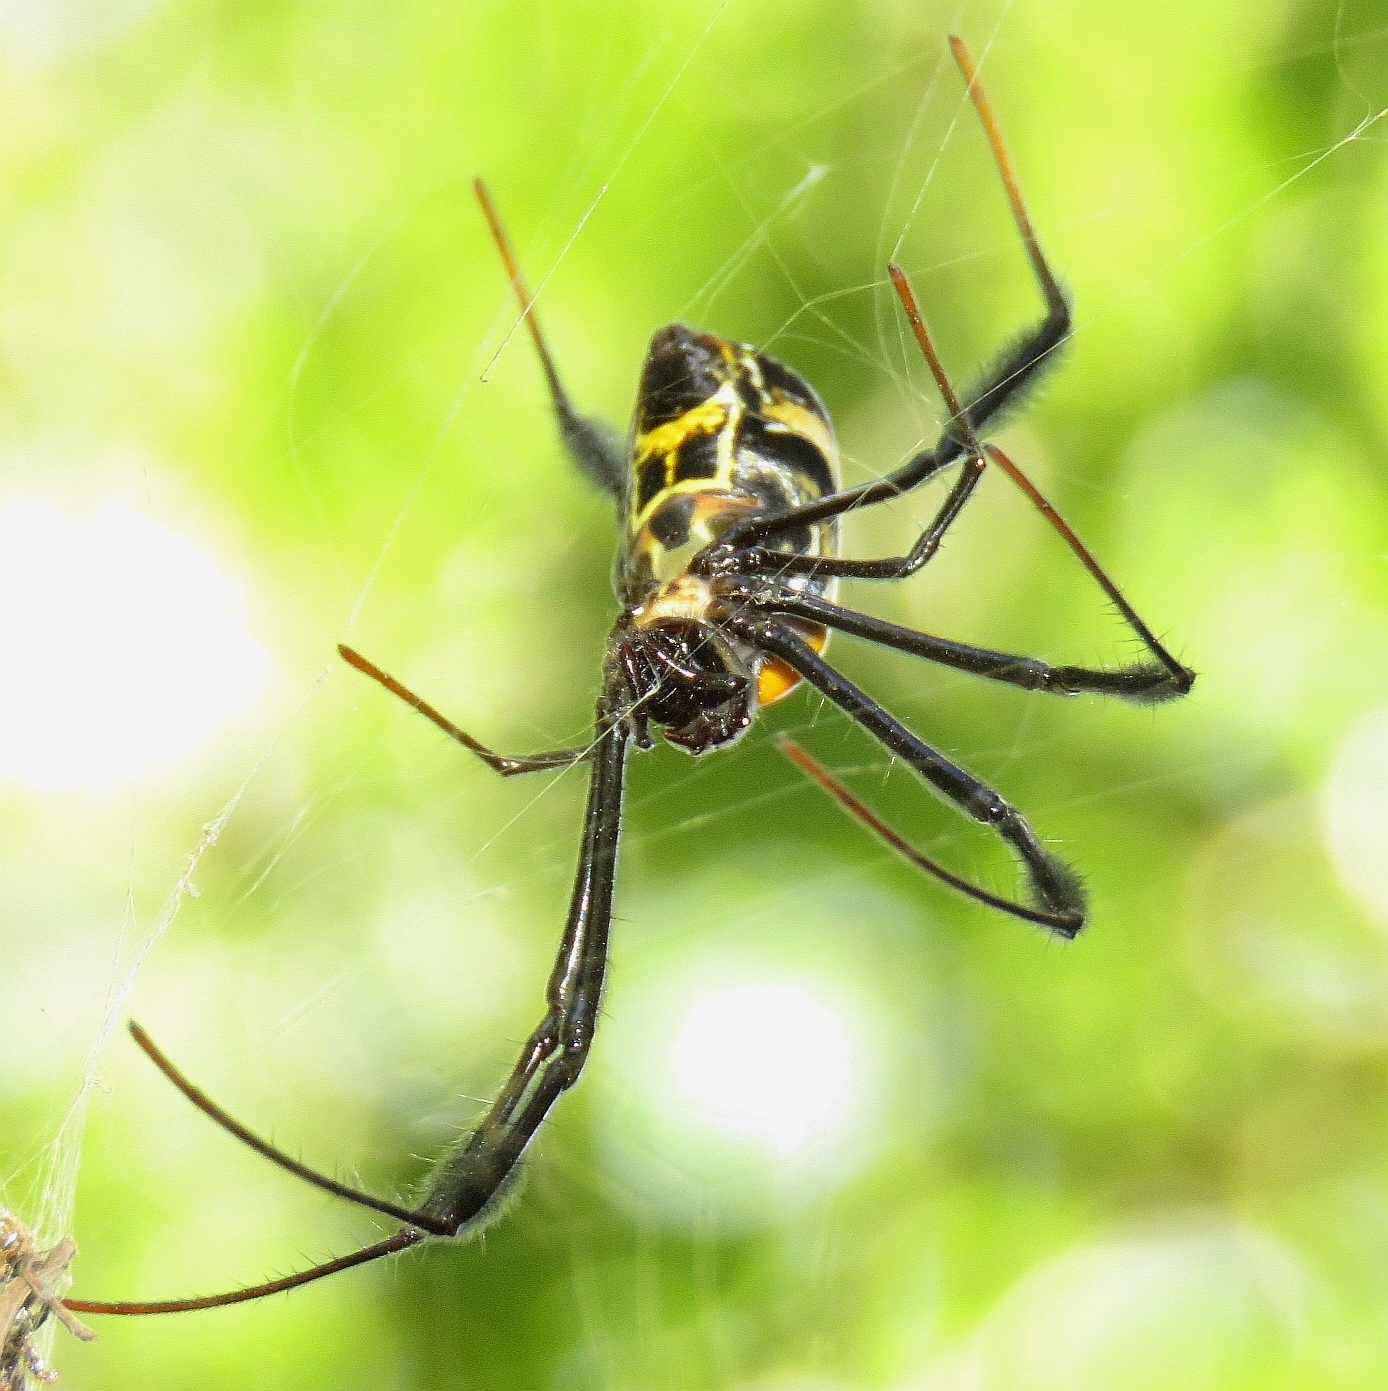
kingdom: Animalia
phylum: Arthropoda
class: Arachnida
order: Araneae
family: Araneidae
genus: Trichonephila
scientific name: Trichonephila fenestrata
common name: Hairy golden orb weaver
